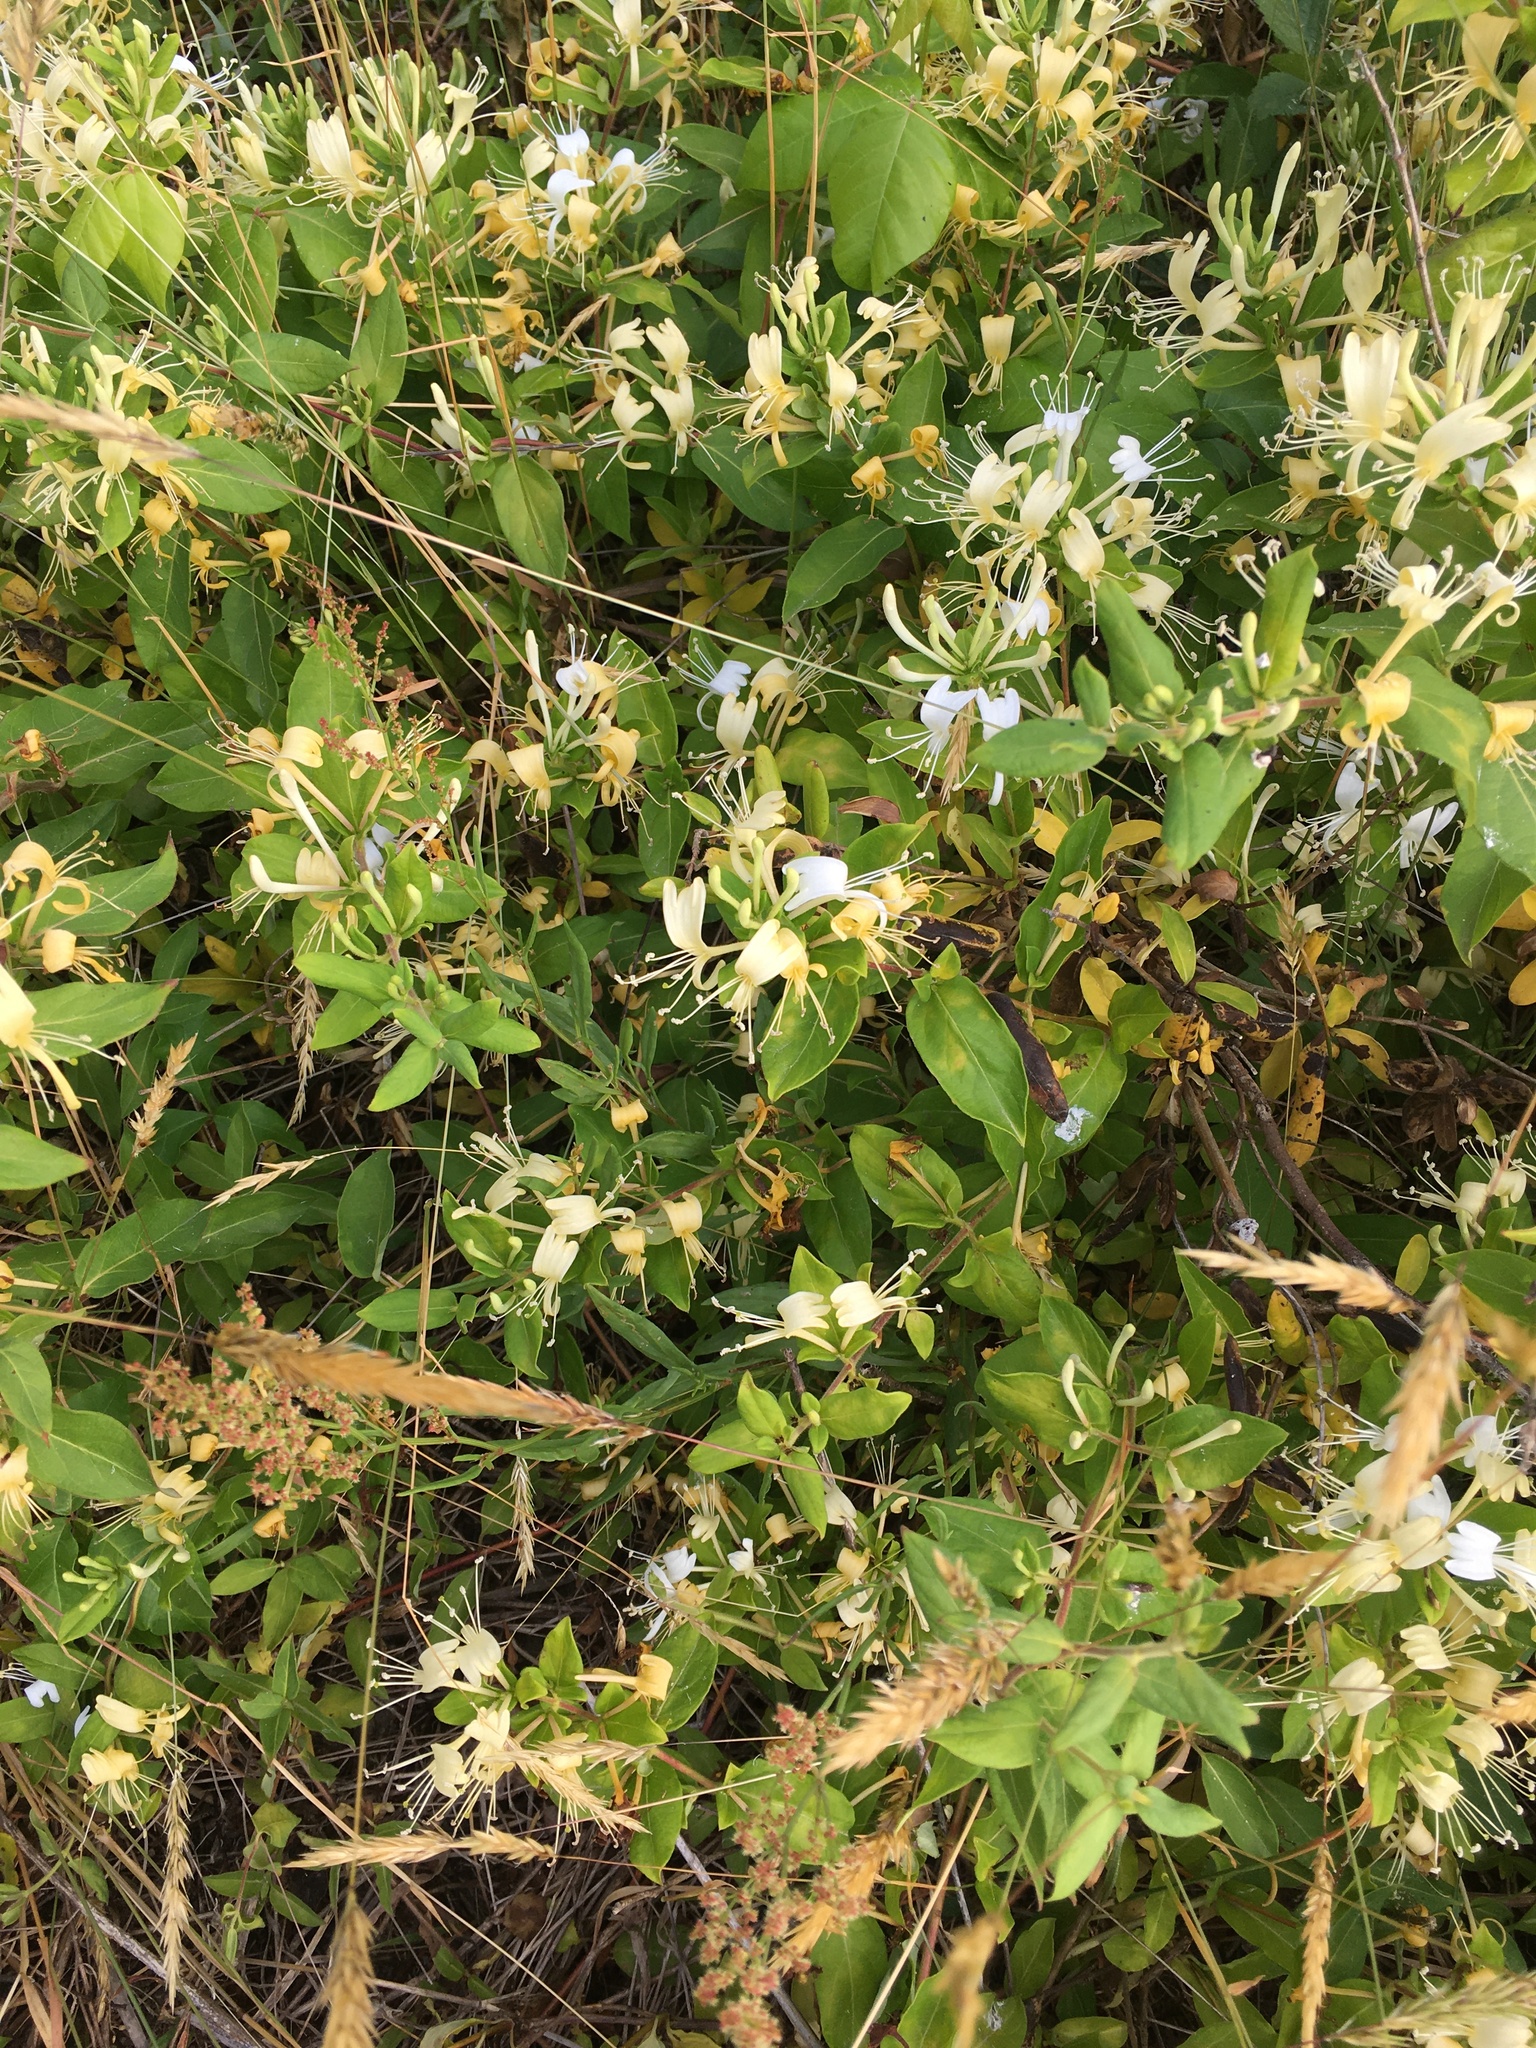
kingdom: Plantae
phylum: Tracheophyta
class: Magnoliopsida
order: Dipsacales
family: Caprifoliaceae
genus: Lonicera
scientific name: Lonicera japonica
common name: Japanese honeysuckle
